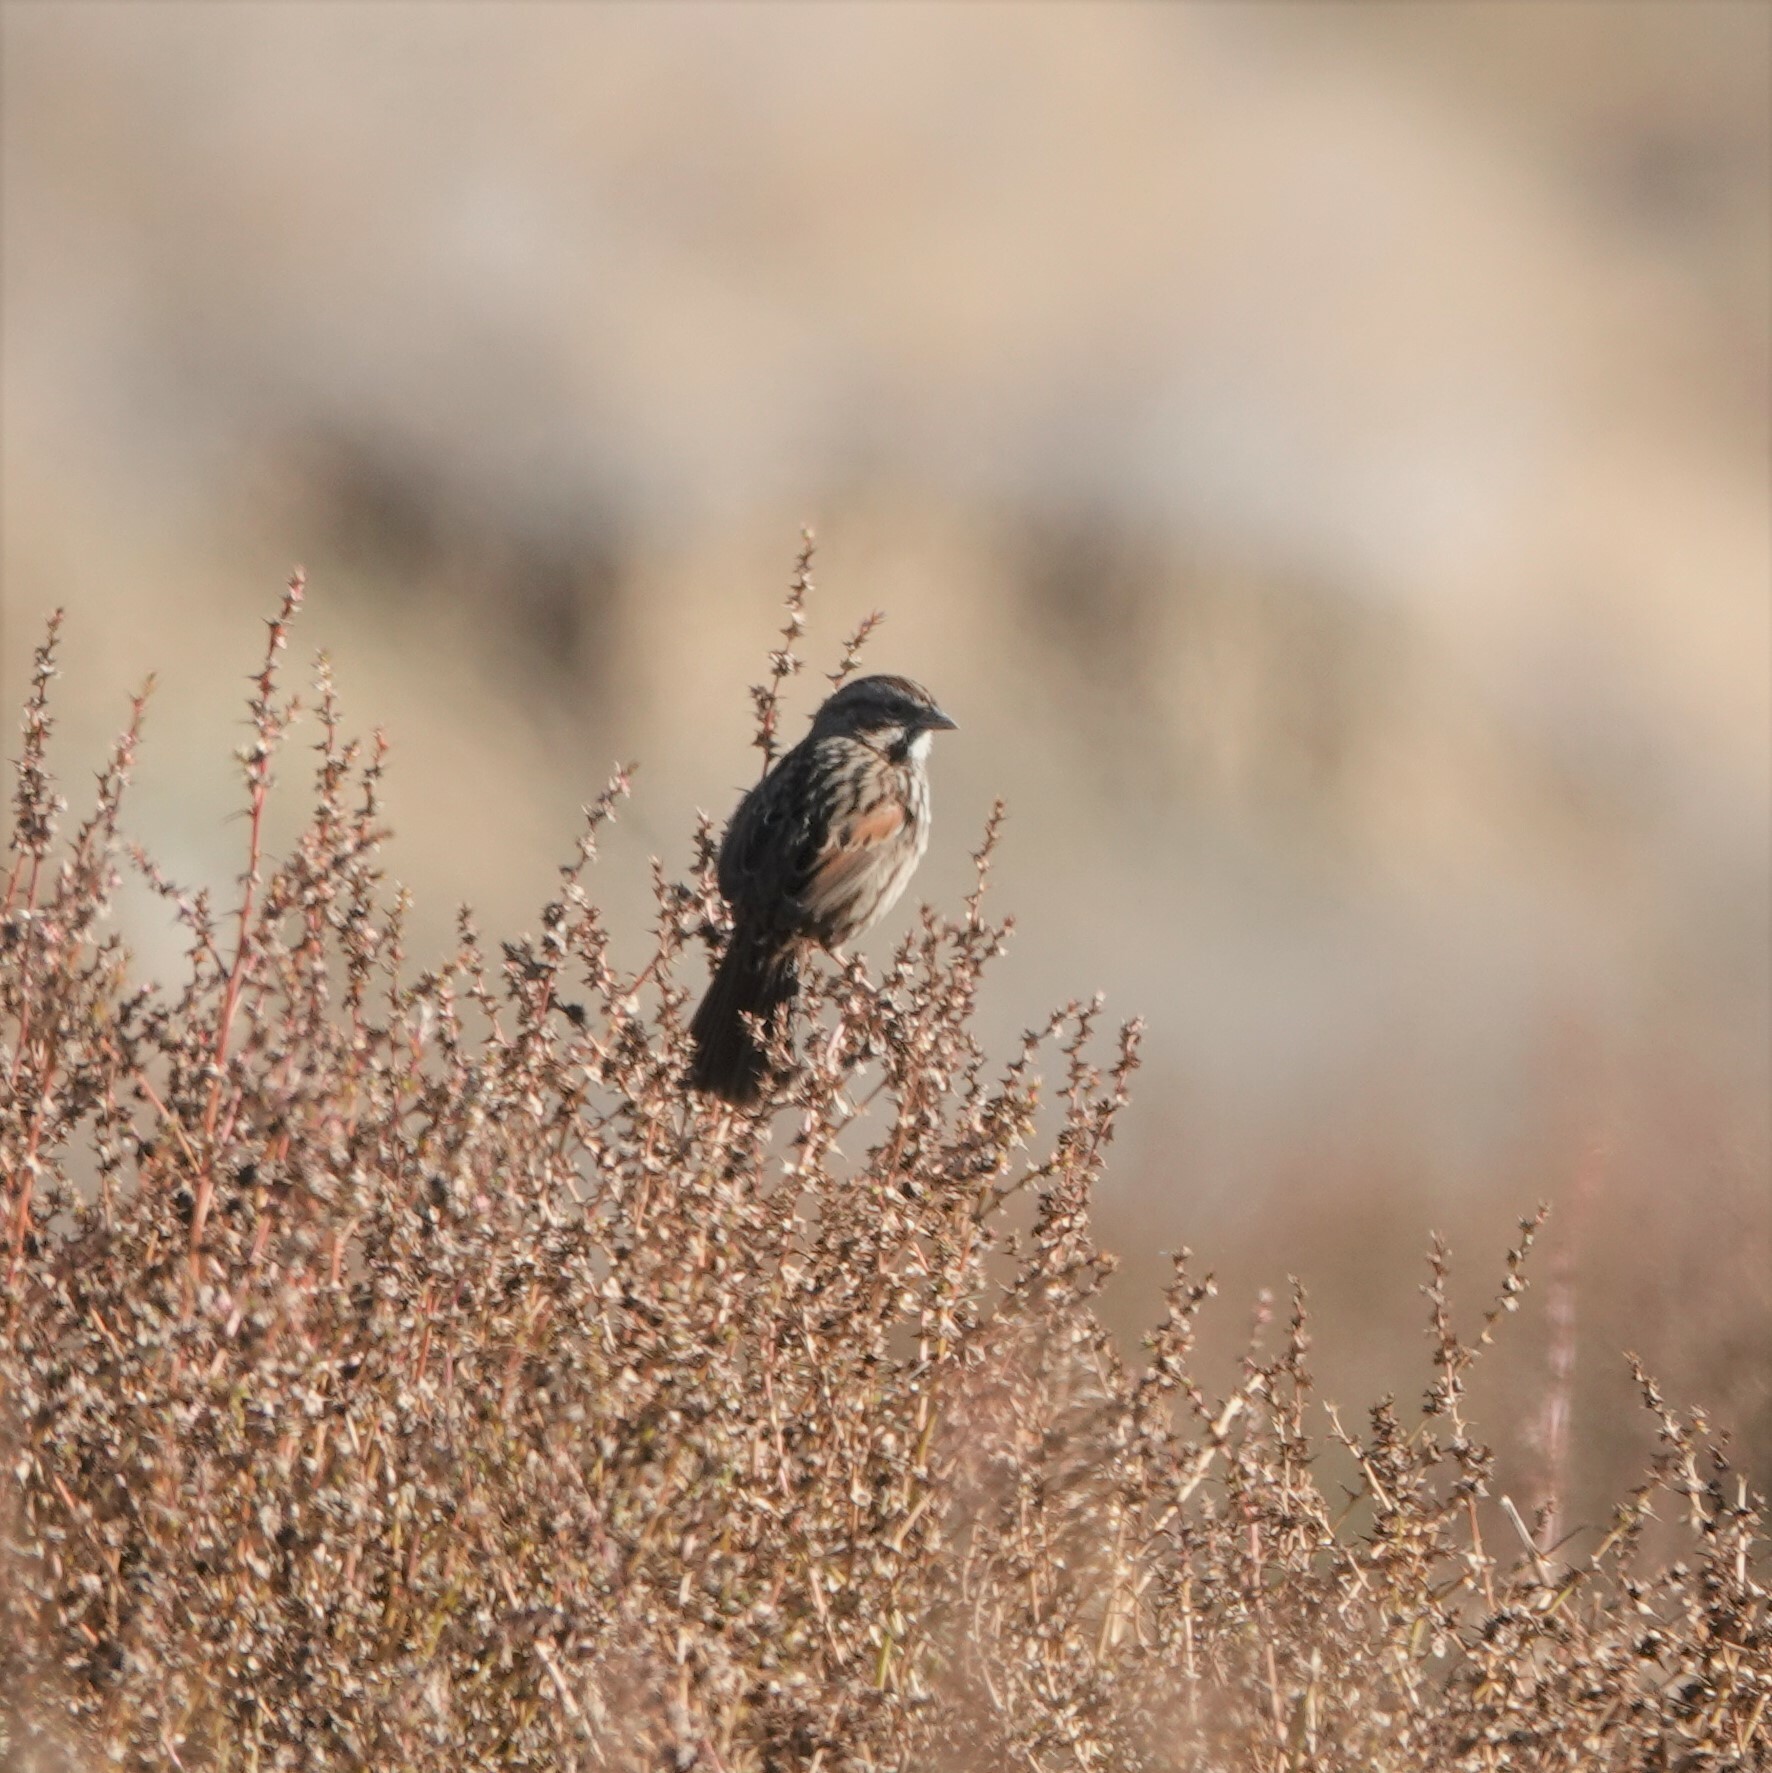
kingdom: Animalia
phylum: Chordata
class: Aves
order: Passeriformes
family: Passerellidae
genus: Melospiza
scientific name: Melospiza melodia
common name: Song sparrow
